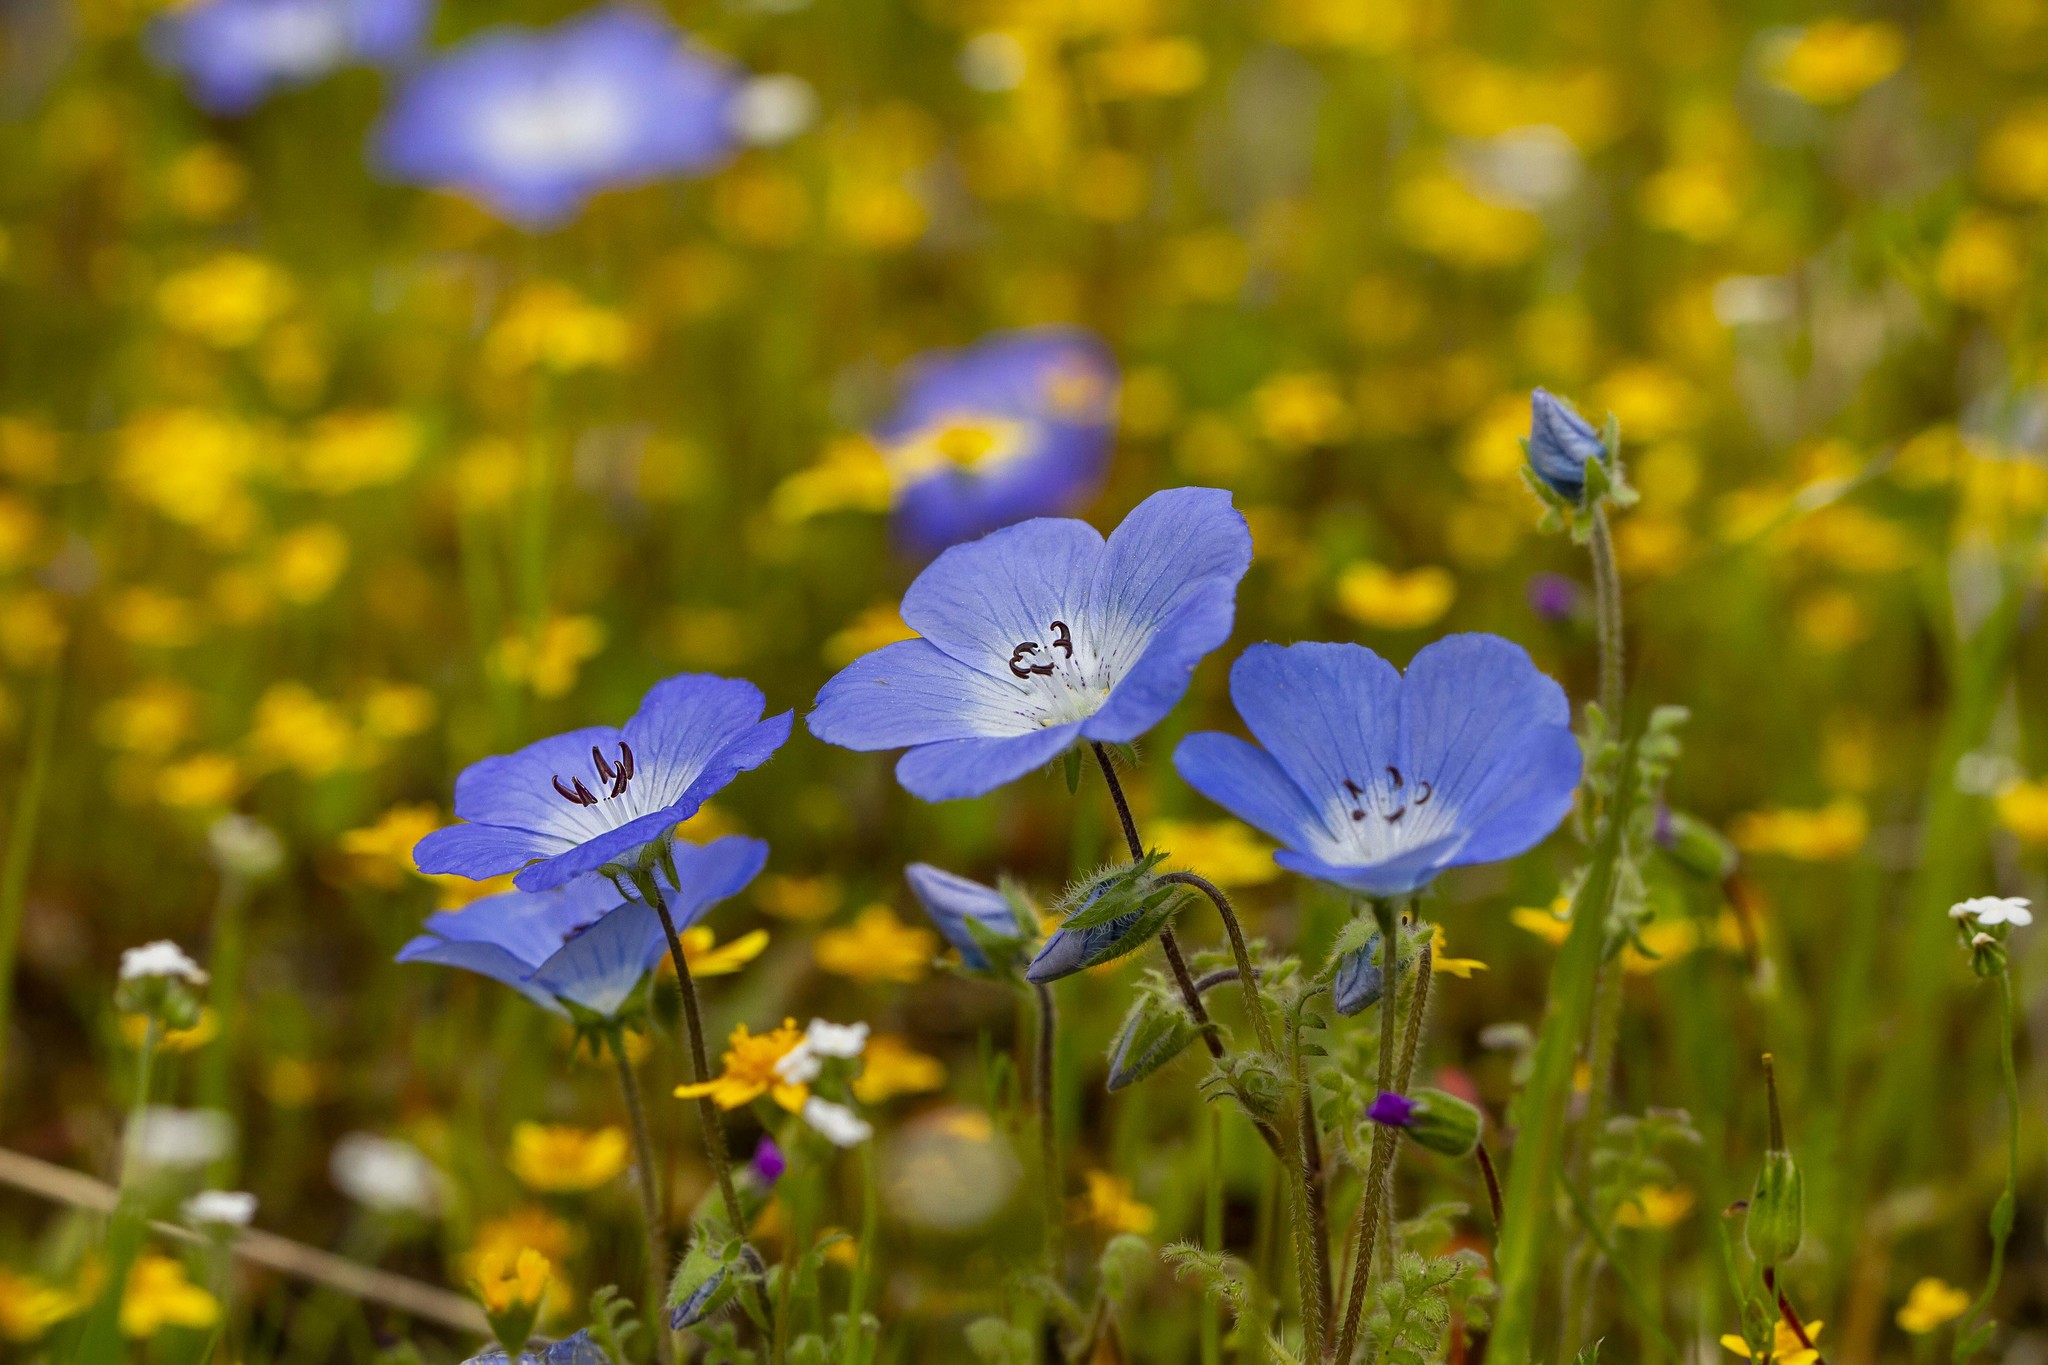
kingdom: Plantae
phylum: Tracheophyta
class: Magnoliopsida
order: Boraginales
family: Hydrophyllaceae
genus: Nemophila
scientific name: Nemophila menziesii
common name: Baby's-blue-eyes
